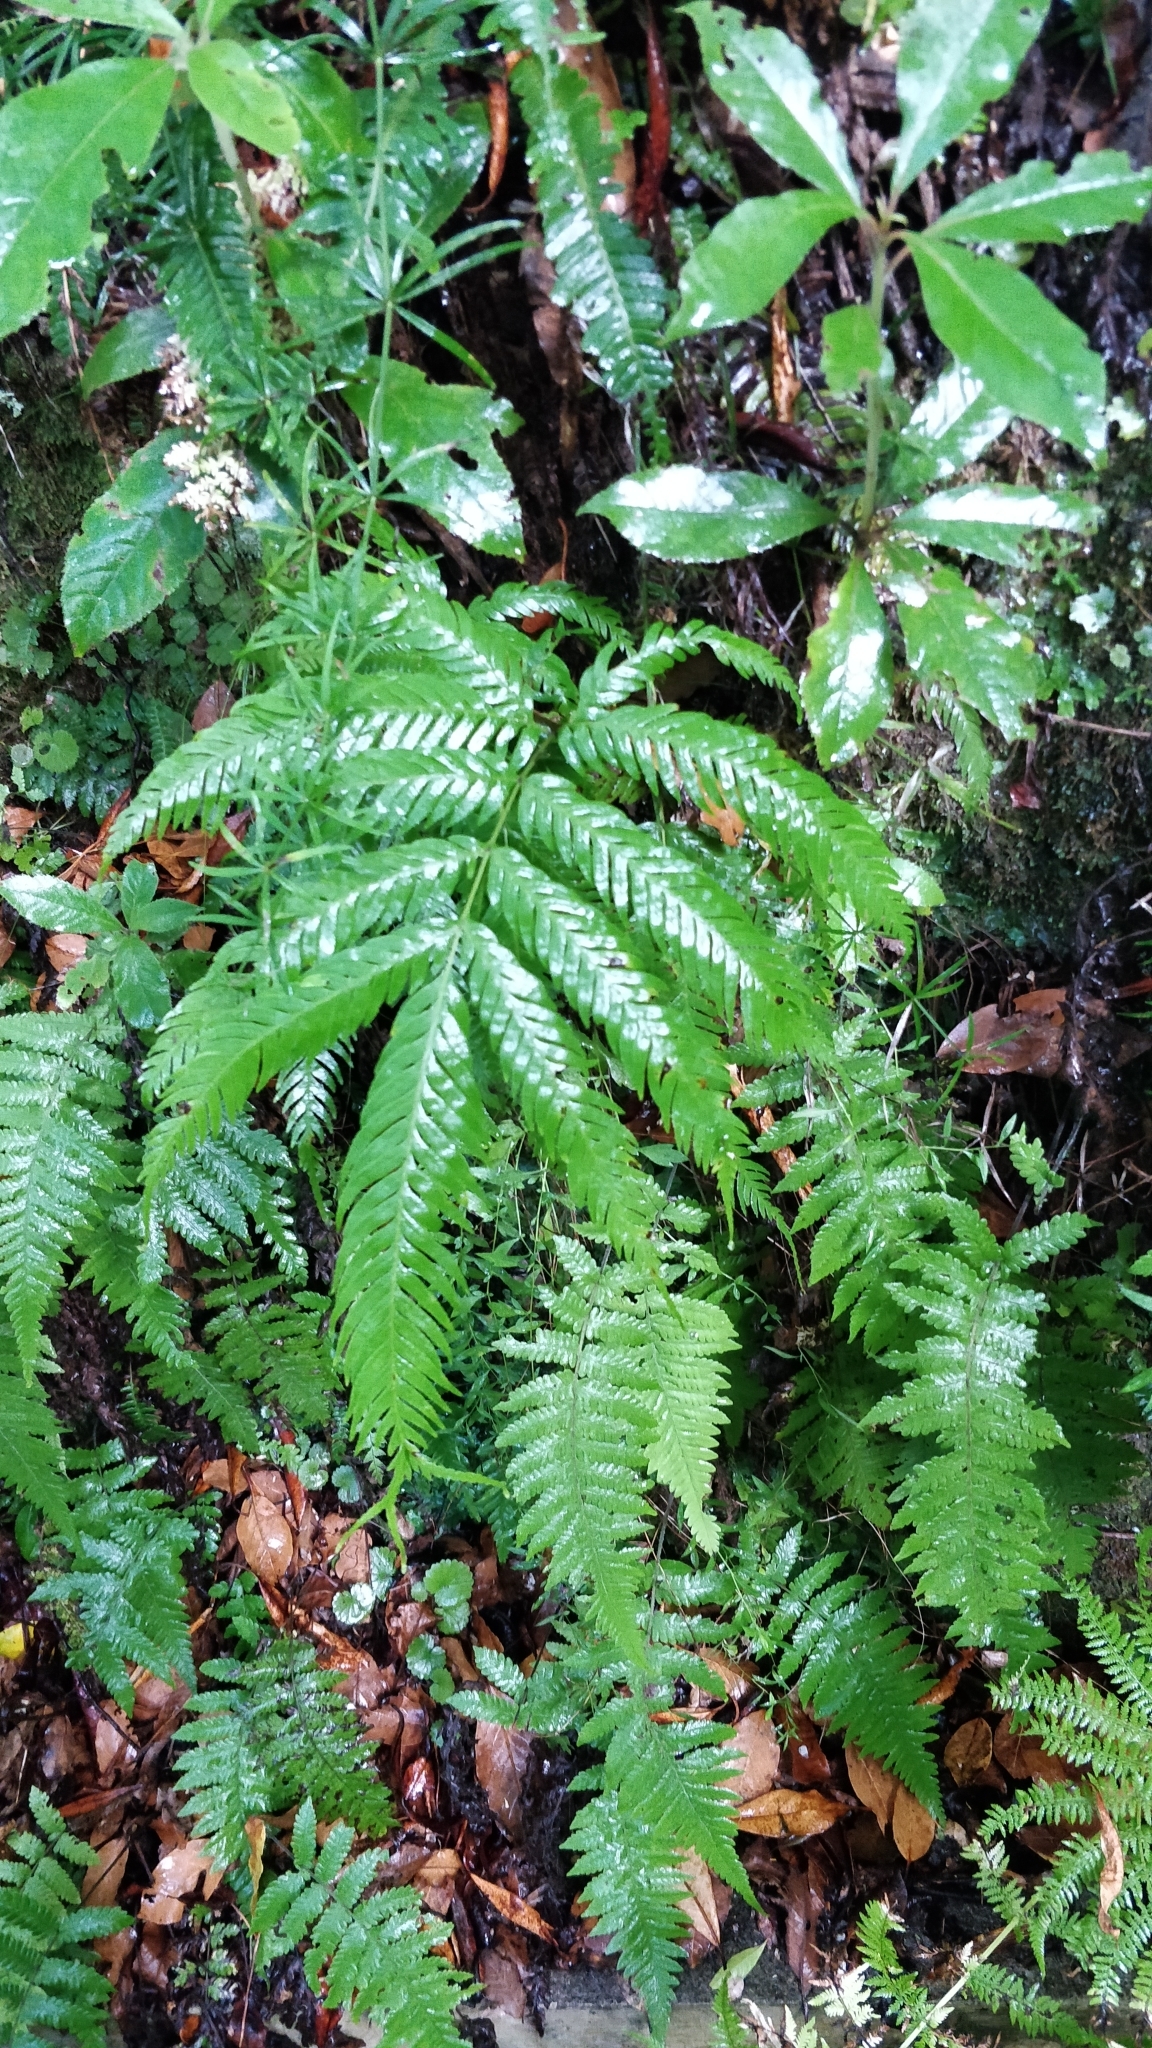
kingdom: Plantae
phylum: Tracheophyta
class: Polypodiopsida
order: Polypodiales
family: Pteridaceae
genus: Pteris
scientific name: Pteris incompleta
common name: Laurisilva brake
